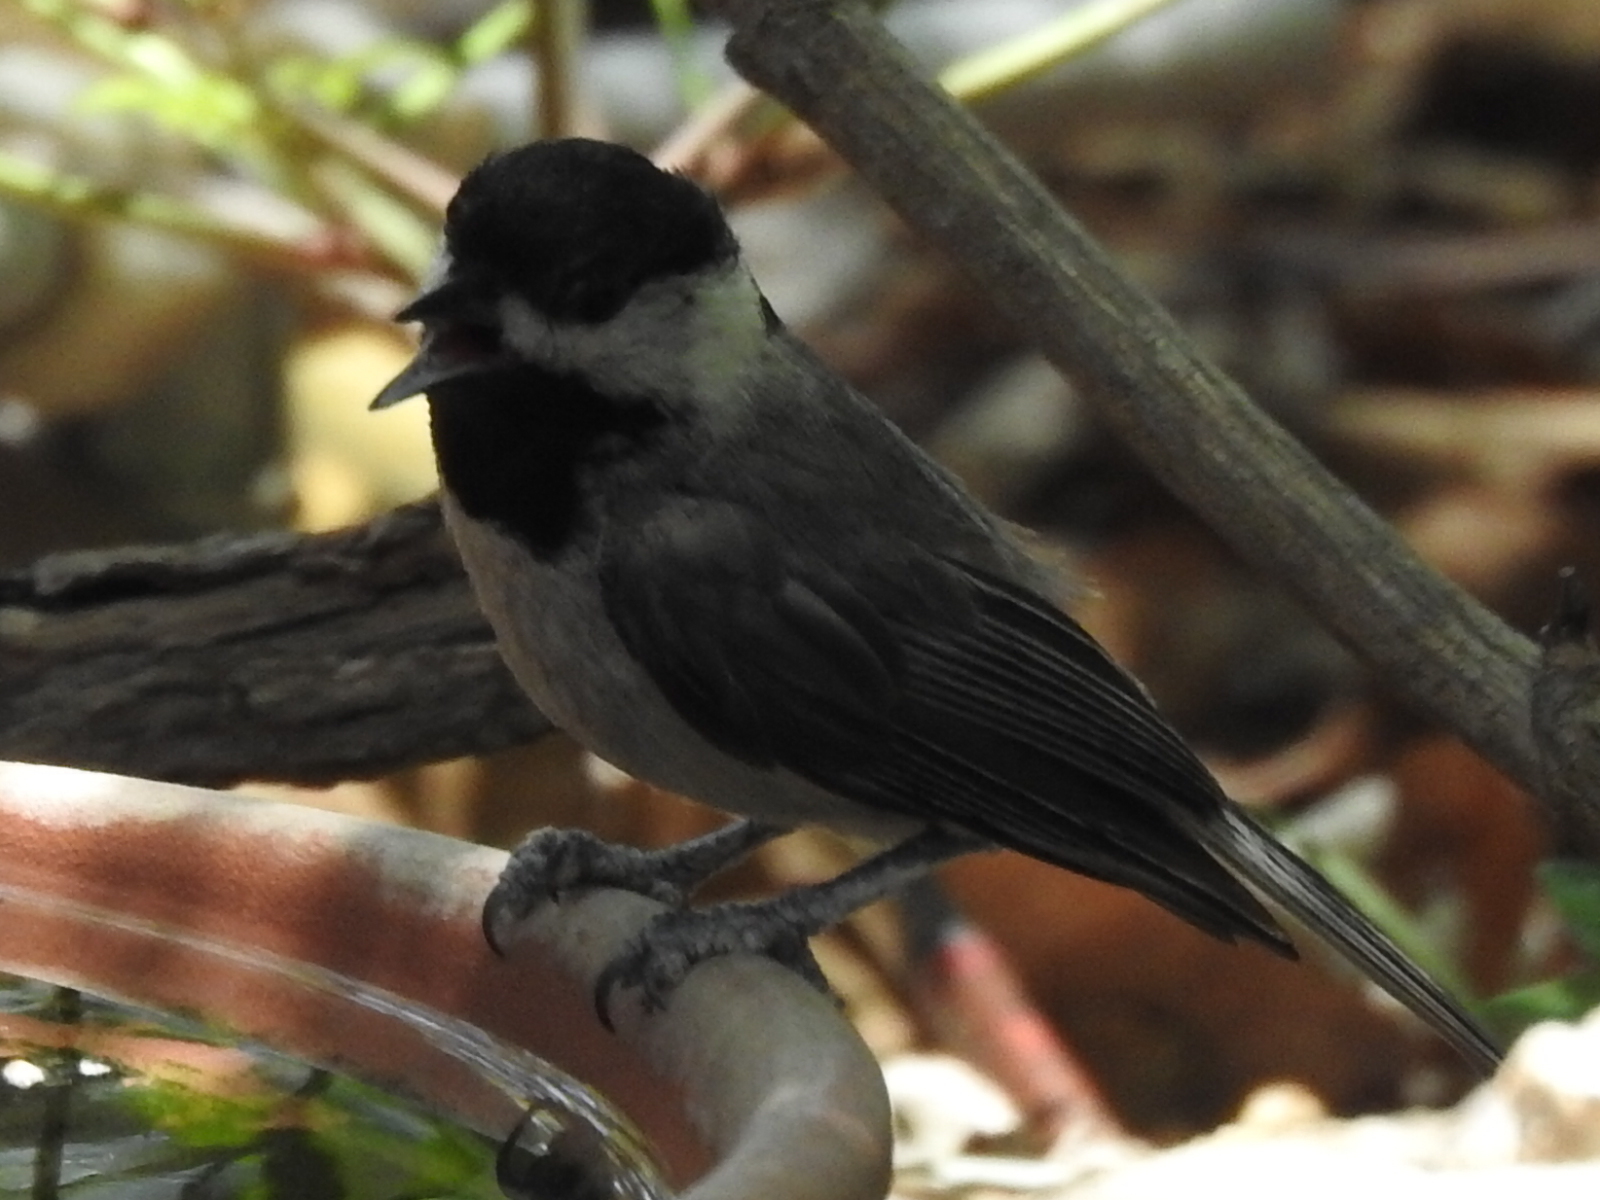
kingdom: Animalia
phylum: Chordata
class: Aves
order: Passeriformes
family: Paridae
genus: Poecile
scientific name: Poecile carolinensis
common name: Carolina chickadee
